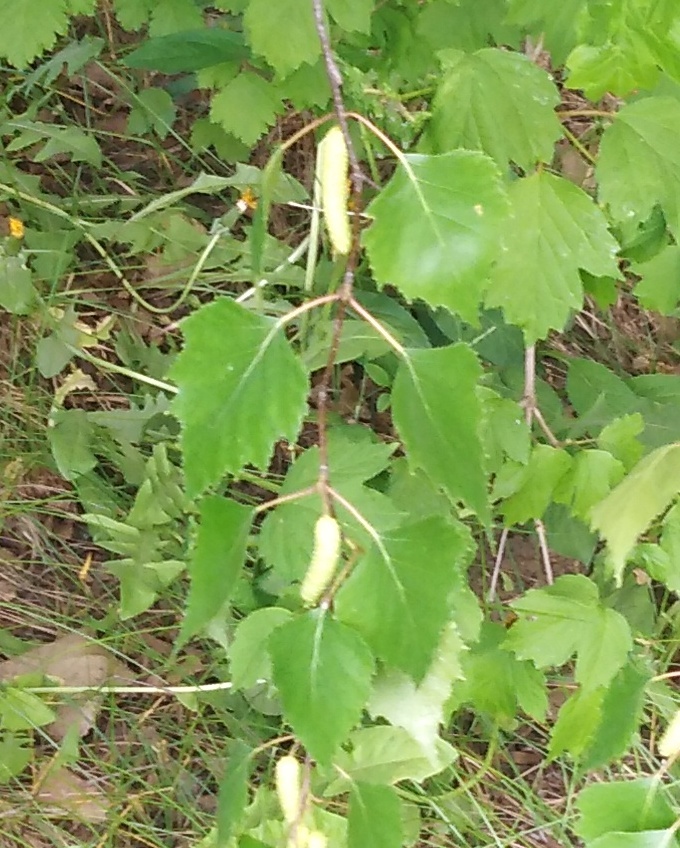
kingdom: Plantae
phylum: Tracheophyta
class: Magnoliopsida
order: Fagales
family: Betulaceae
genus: Betula
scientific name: Betula pendula
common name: Silver birch
